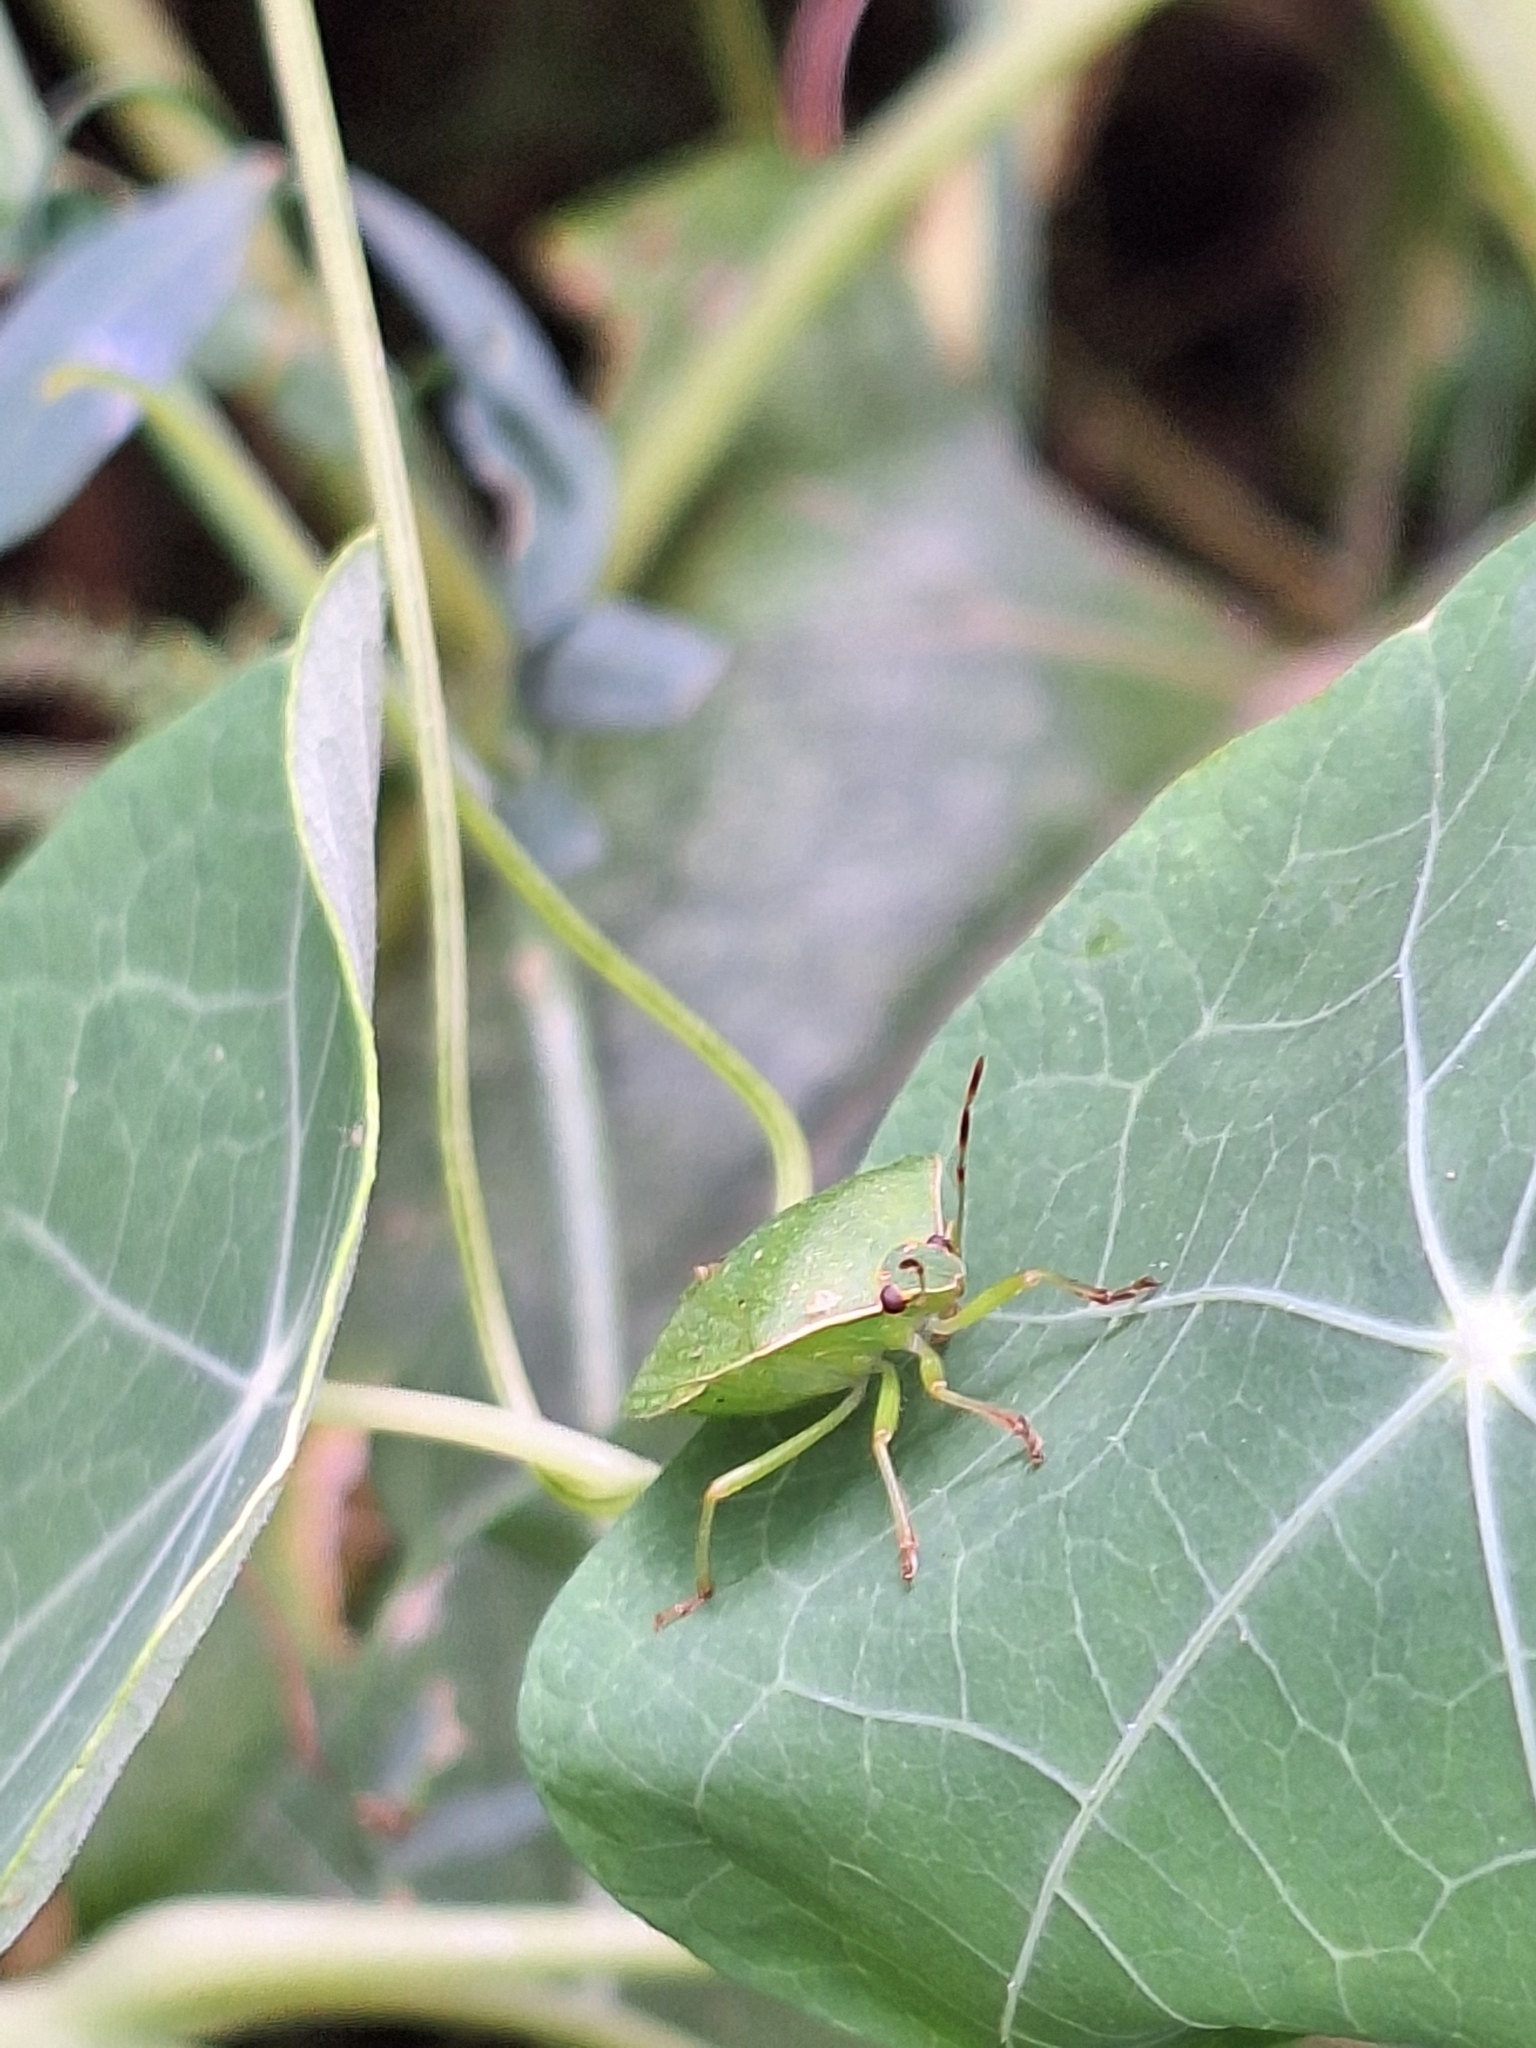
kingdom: Animalia
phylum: Arthropoda
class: Insecta
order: Hemiptera
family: Pentatomidae
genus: Nezara
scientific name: Nezara viridula
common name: Southern green stink bug
